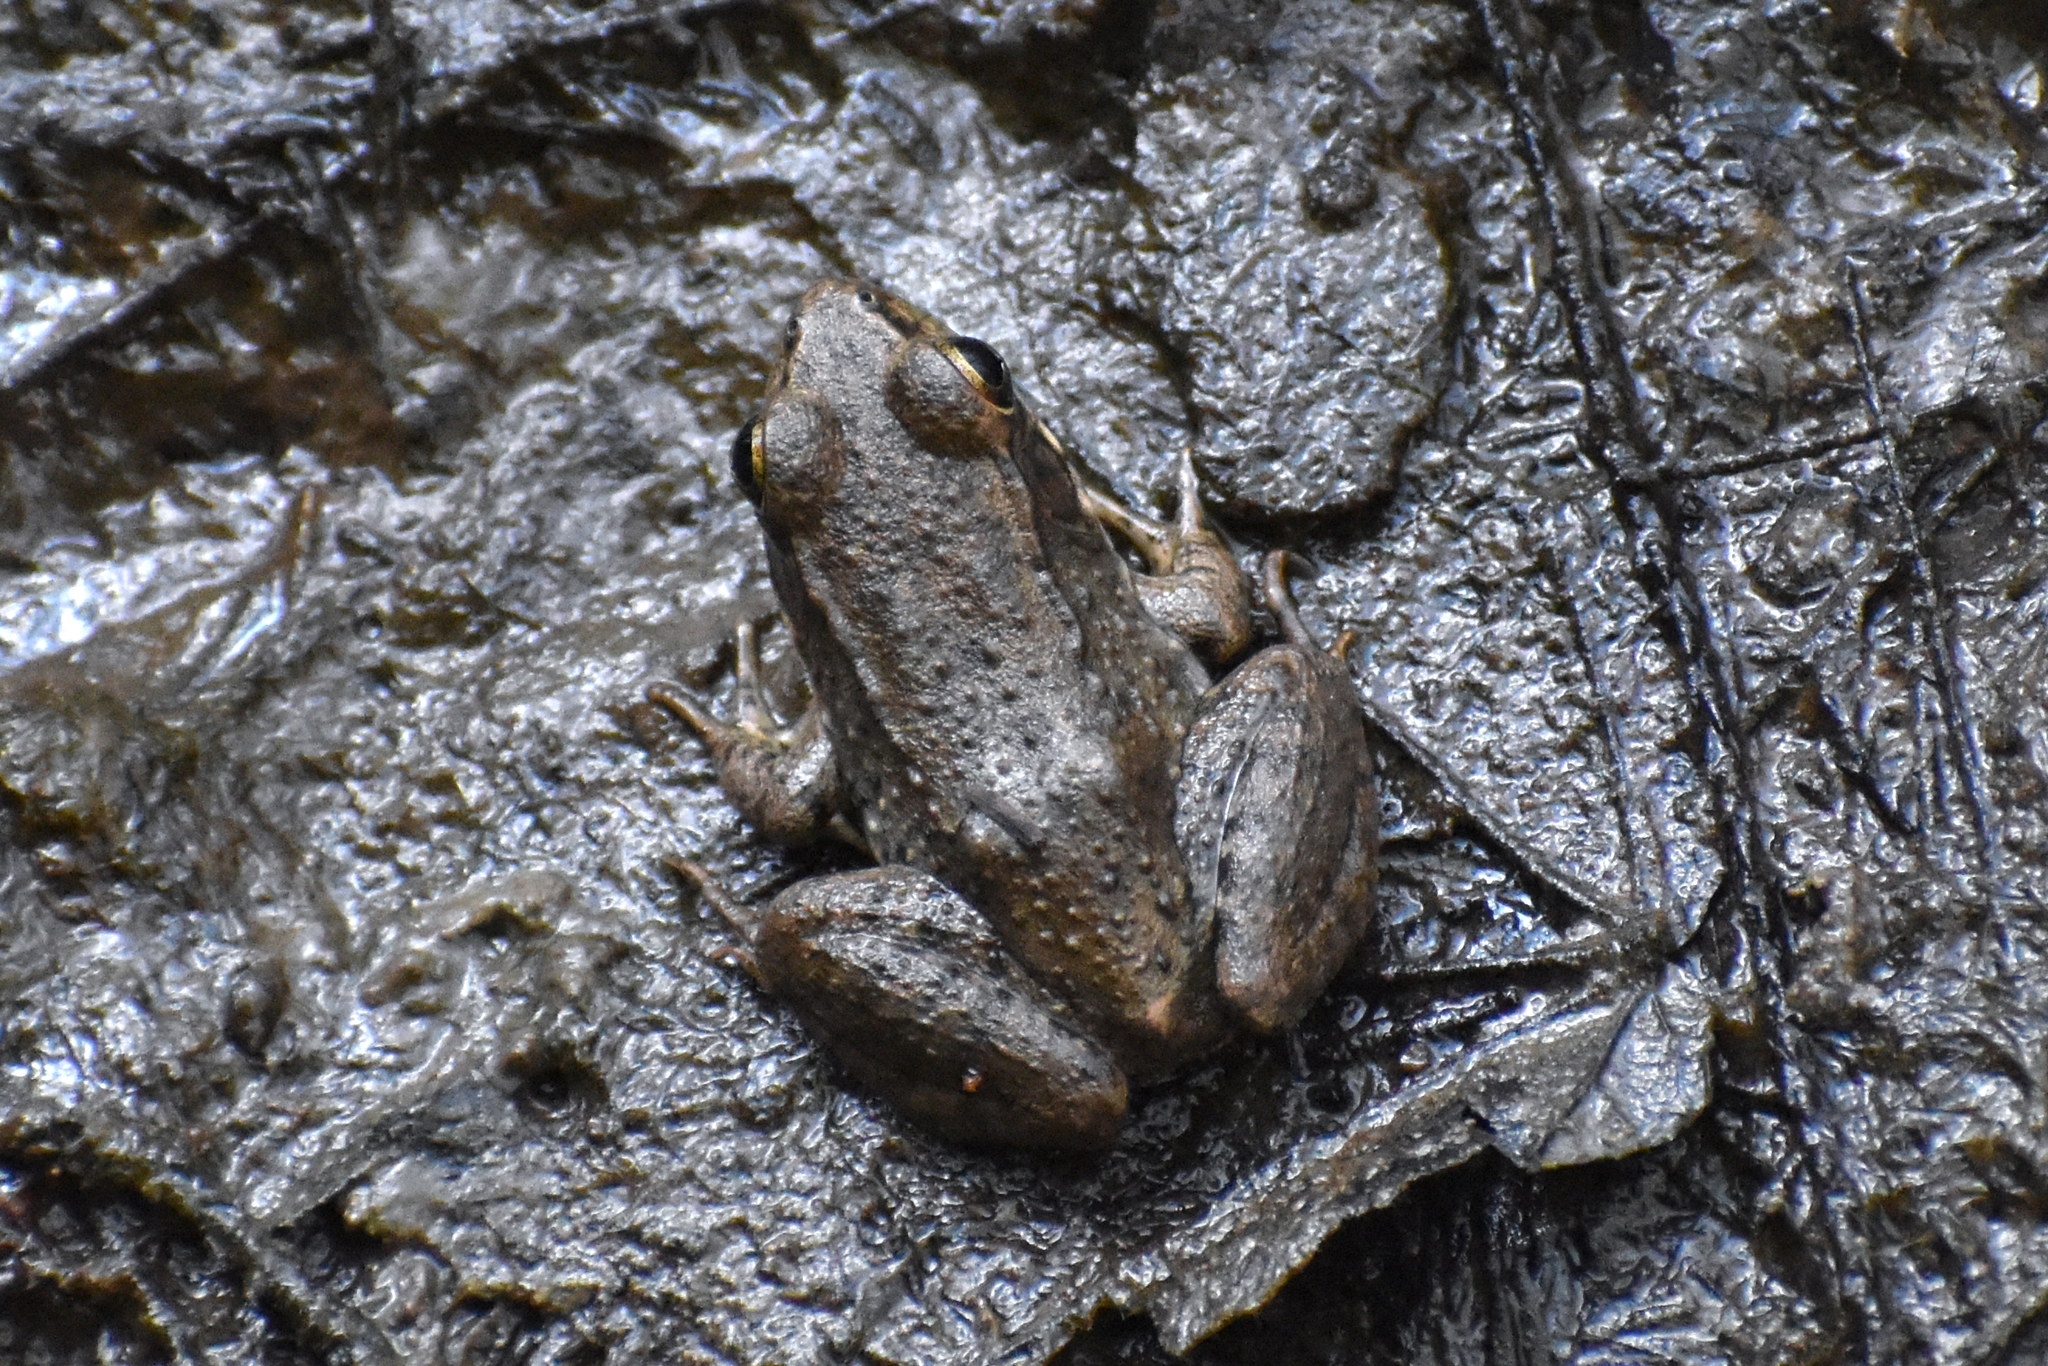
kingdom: Animalia
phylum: Chordata
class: Amphibia
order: Anura
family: Ranidae
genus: Lithobates
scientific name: Lithobates clamitans
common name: Green frog
